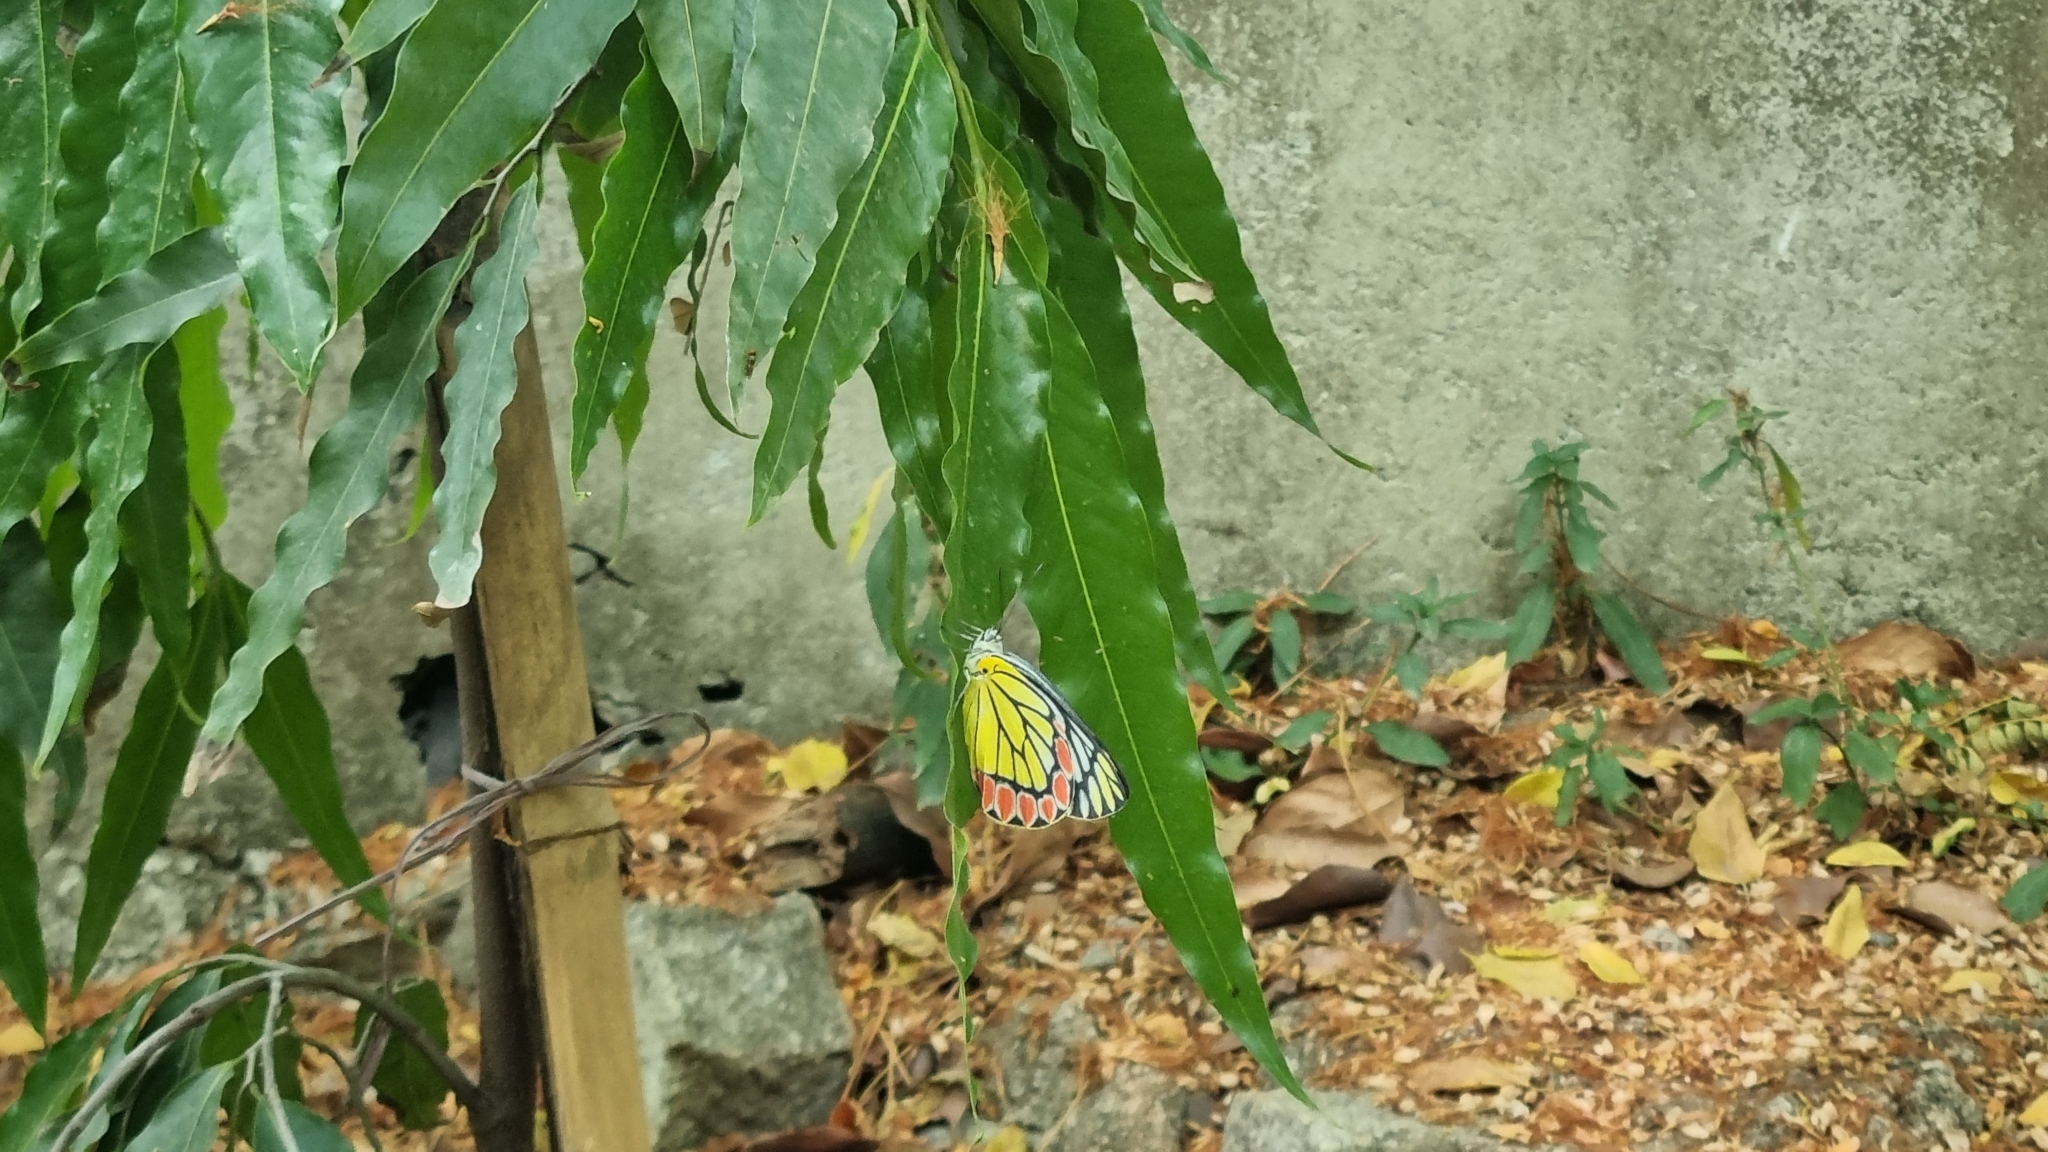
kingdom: Animalia
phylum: Arthropoda
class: Insecta
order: Lepidoptera
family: Pieridae
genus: Delias
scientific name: Delias eucharis
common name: Common jezebel
